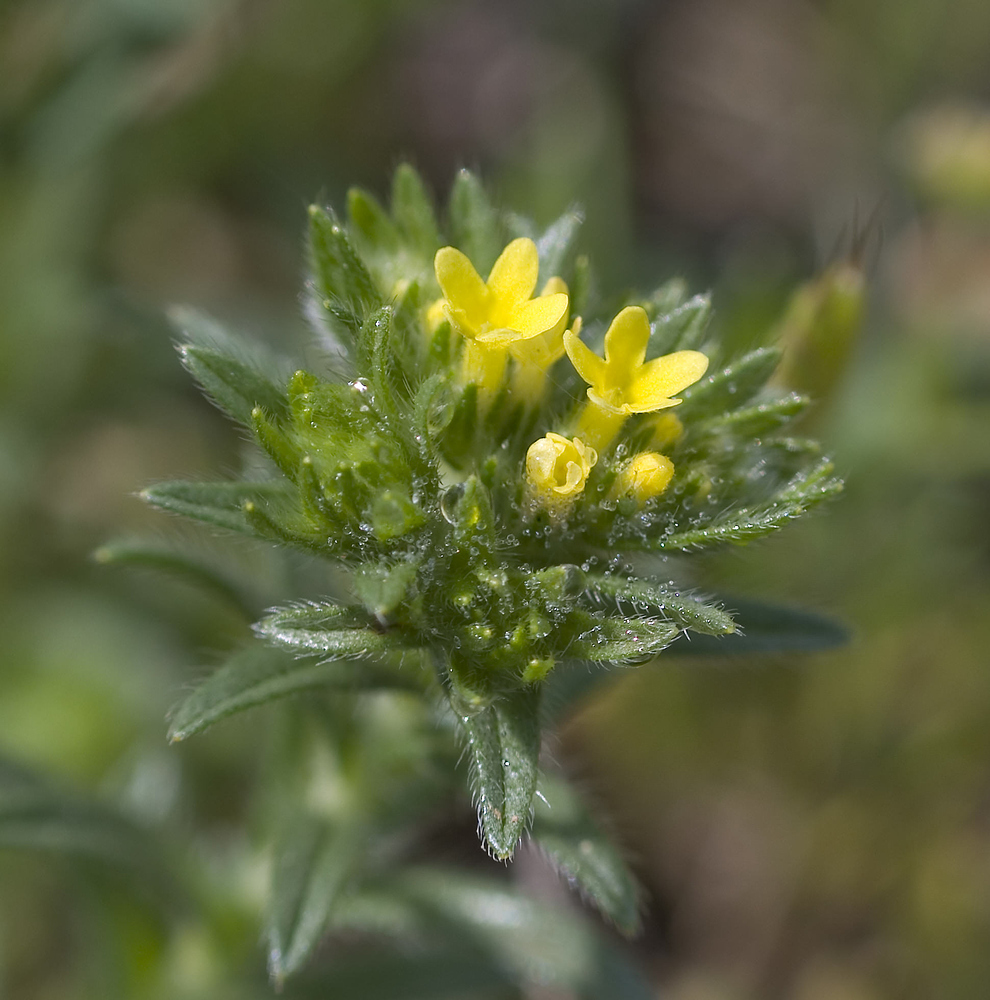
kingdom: Plantae
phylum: Tracheophyta
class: Magnoliopsida
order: Boraginales
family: Boraginaceae
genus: Neatostema
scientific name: Neatostema apulum
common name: Hairy sheepweed
